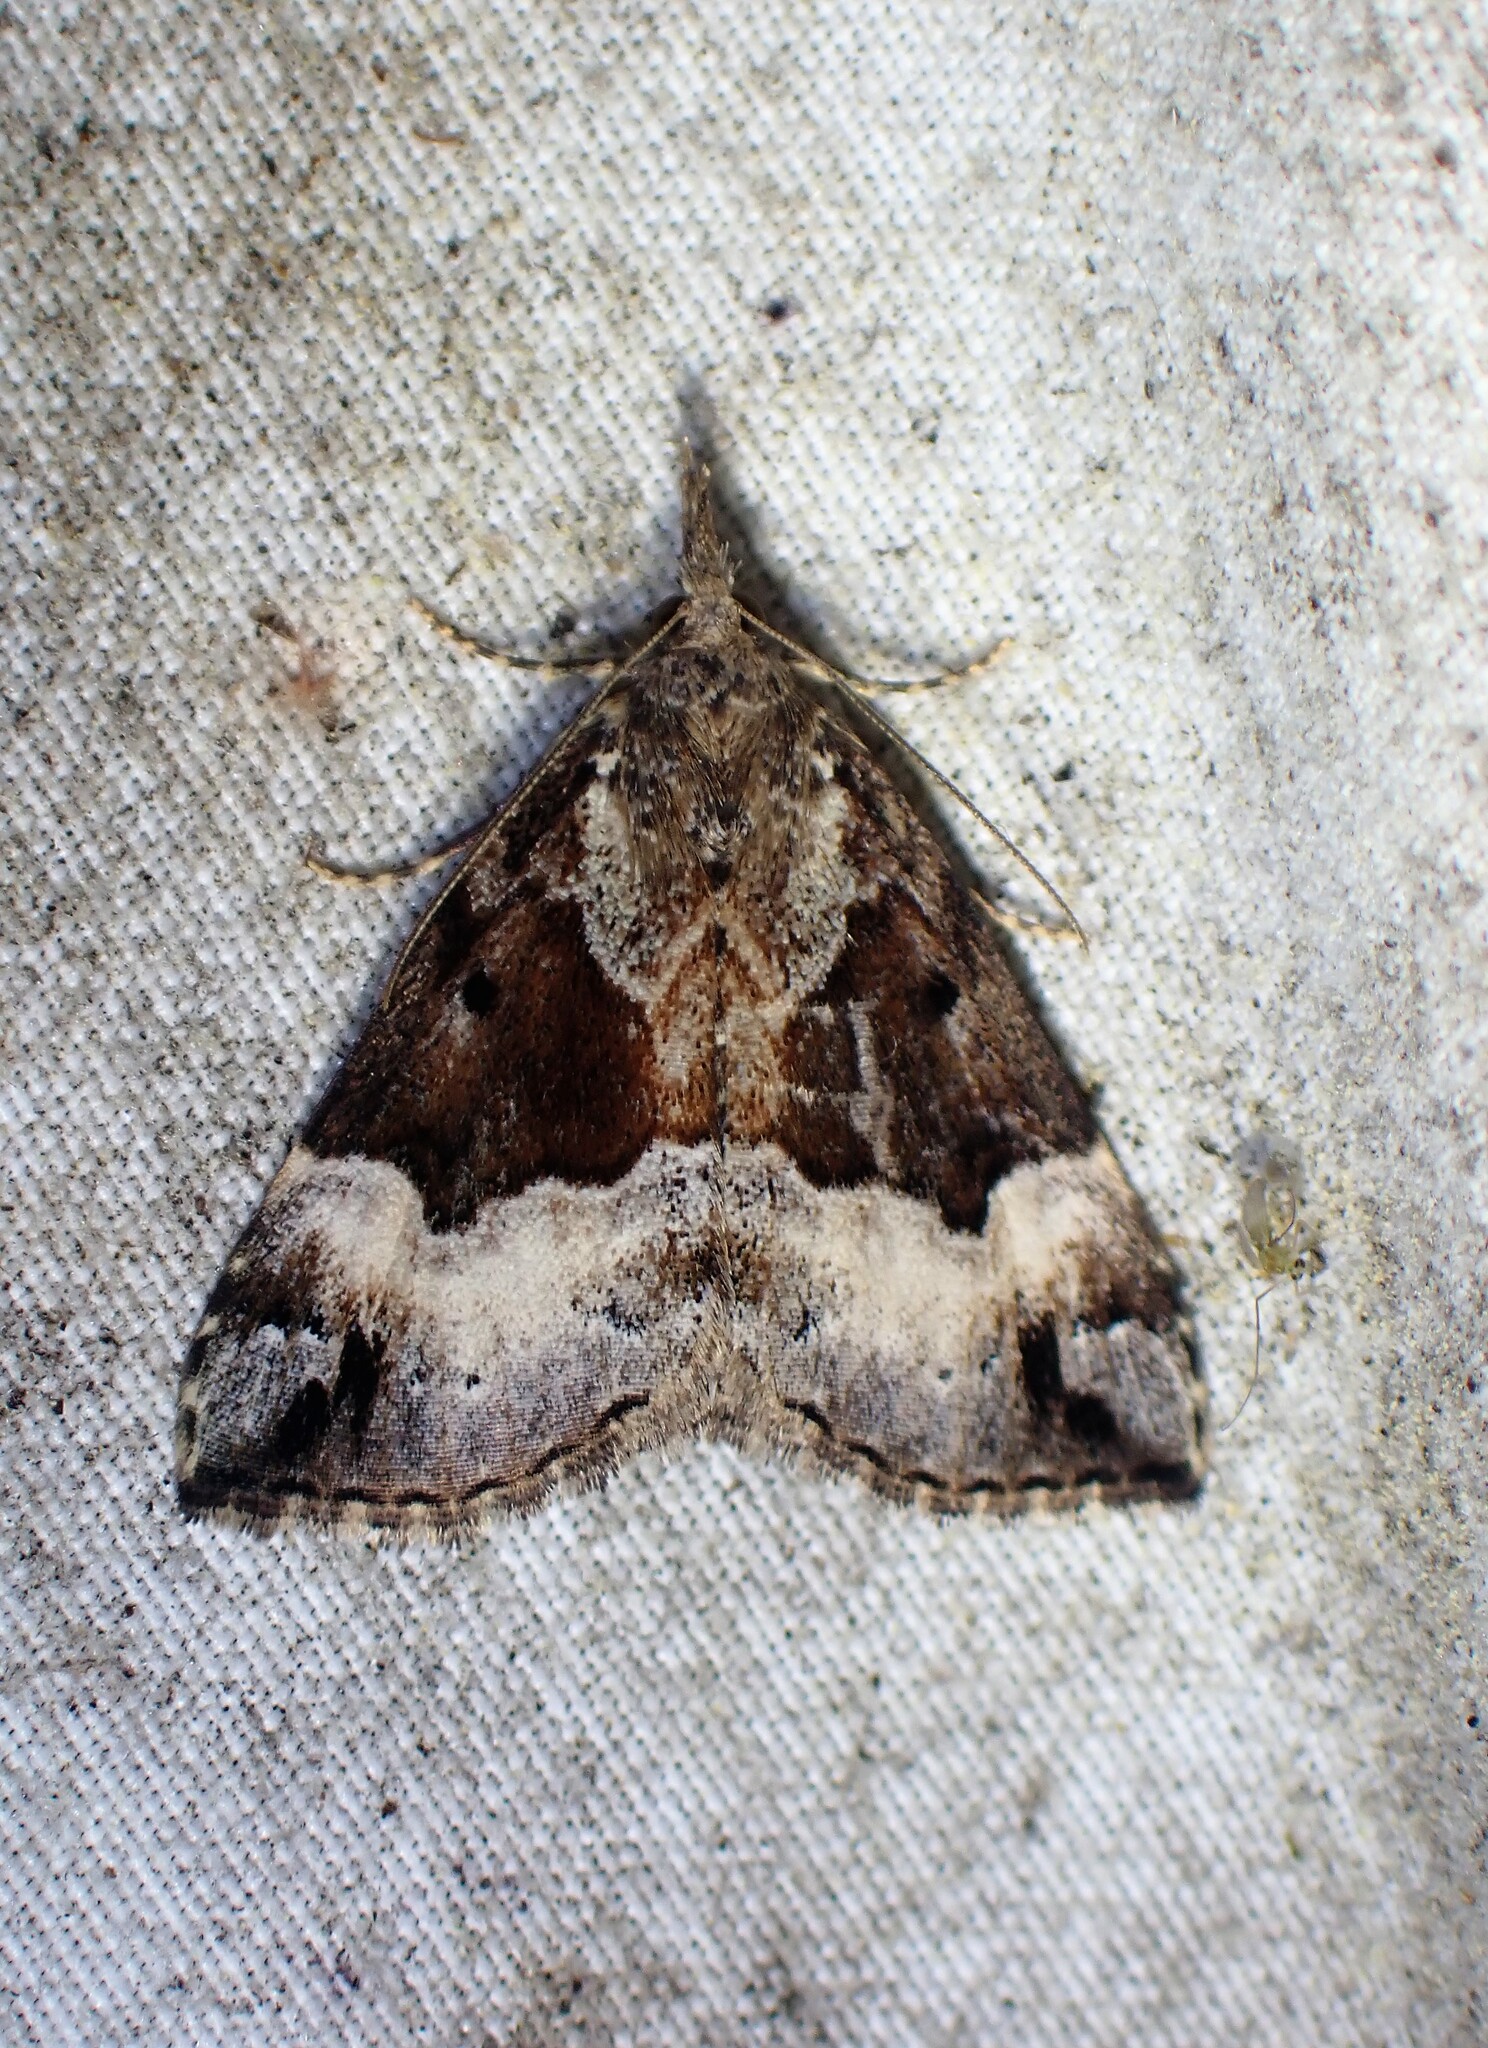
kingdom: Animalia
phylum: Arthropoda
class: Insecta
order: Lepidoptera
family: Erebidae
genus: Hypena
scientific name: Hypena palparia
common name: Mottled bomolocha moth
